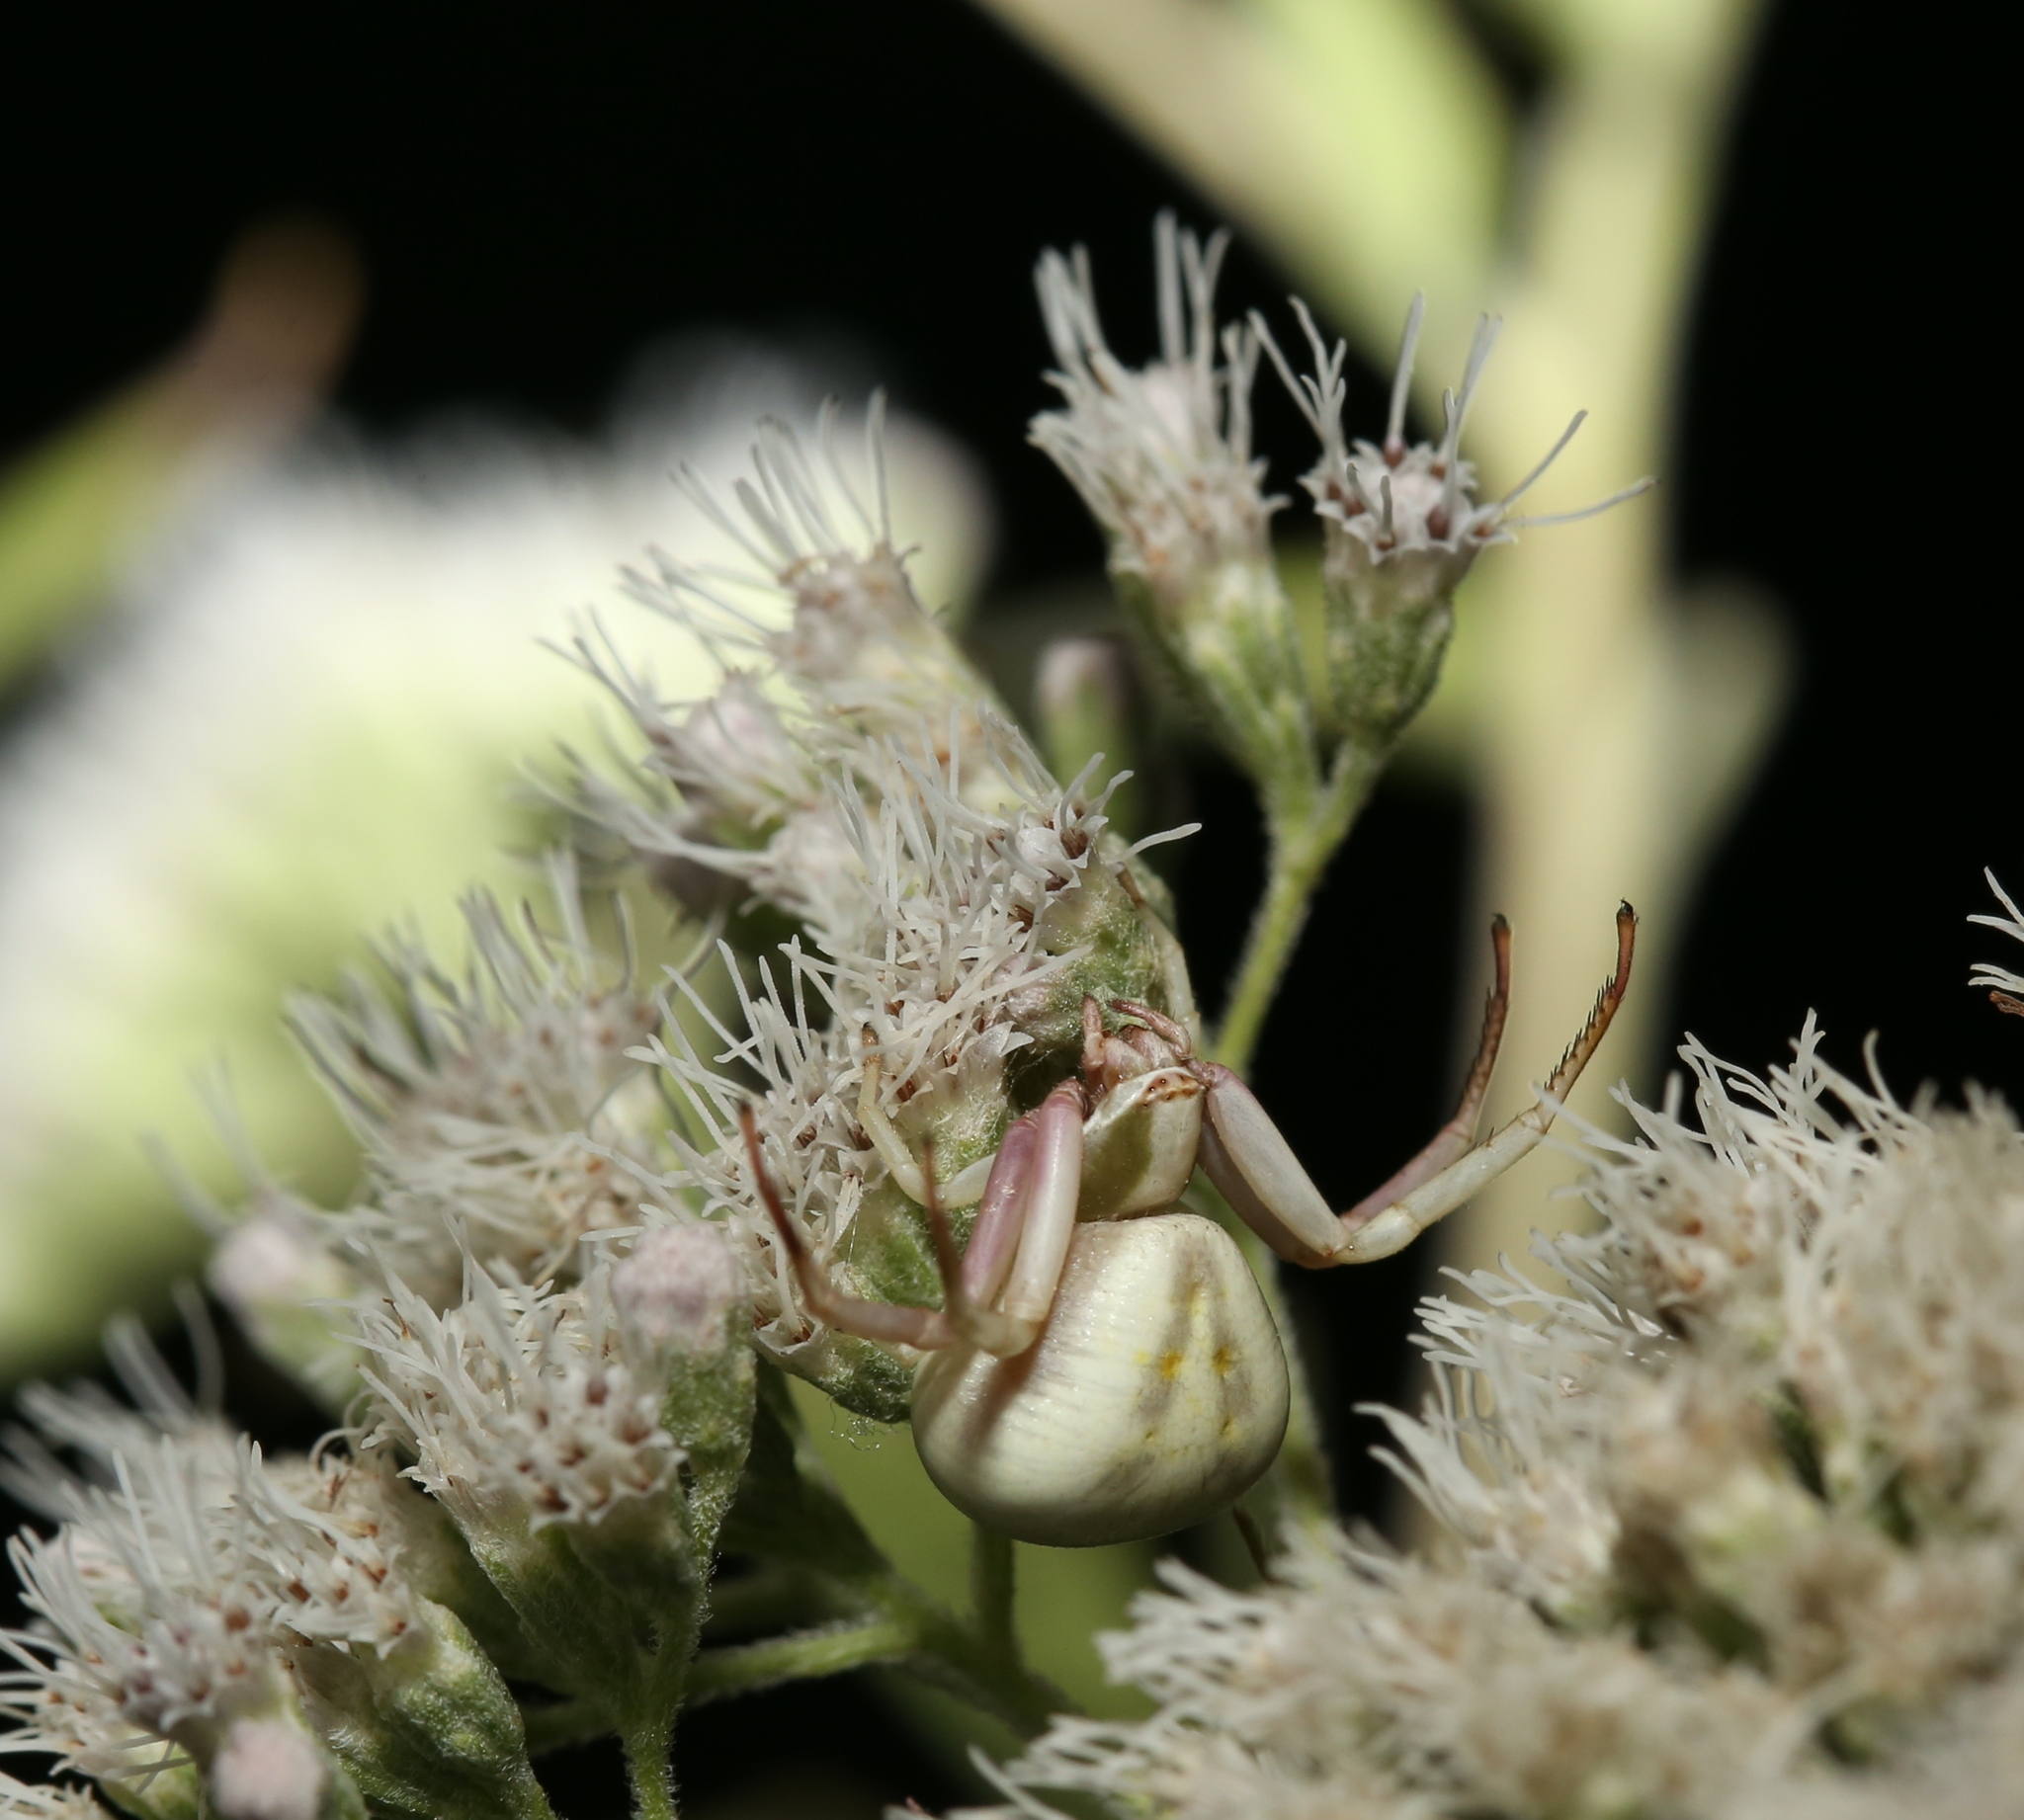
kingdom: Animalia
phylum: Arthropoda
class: Arachnida
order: Araneae
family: Thomisidae
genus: Misumenoides
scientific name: Misumenoides formosipes
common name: White-banded crab spider
